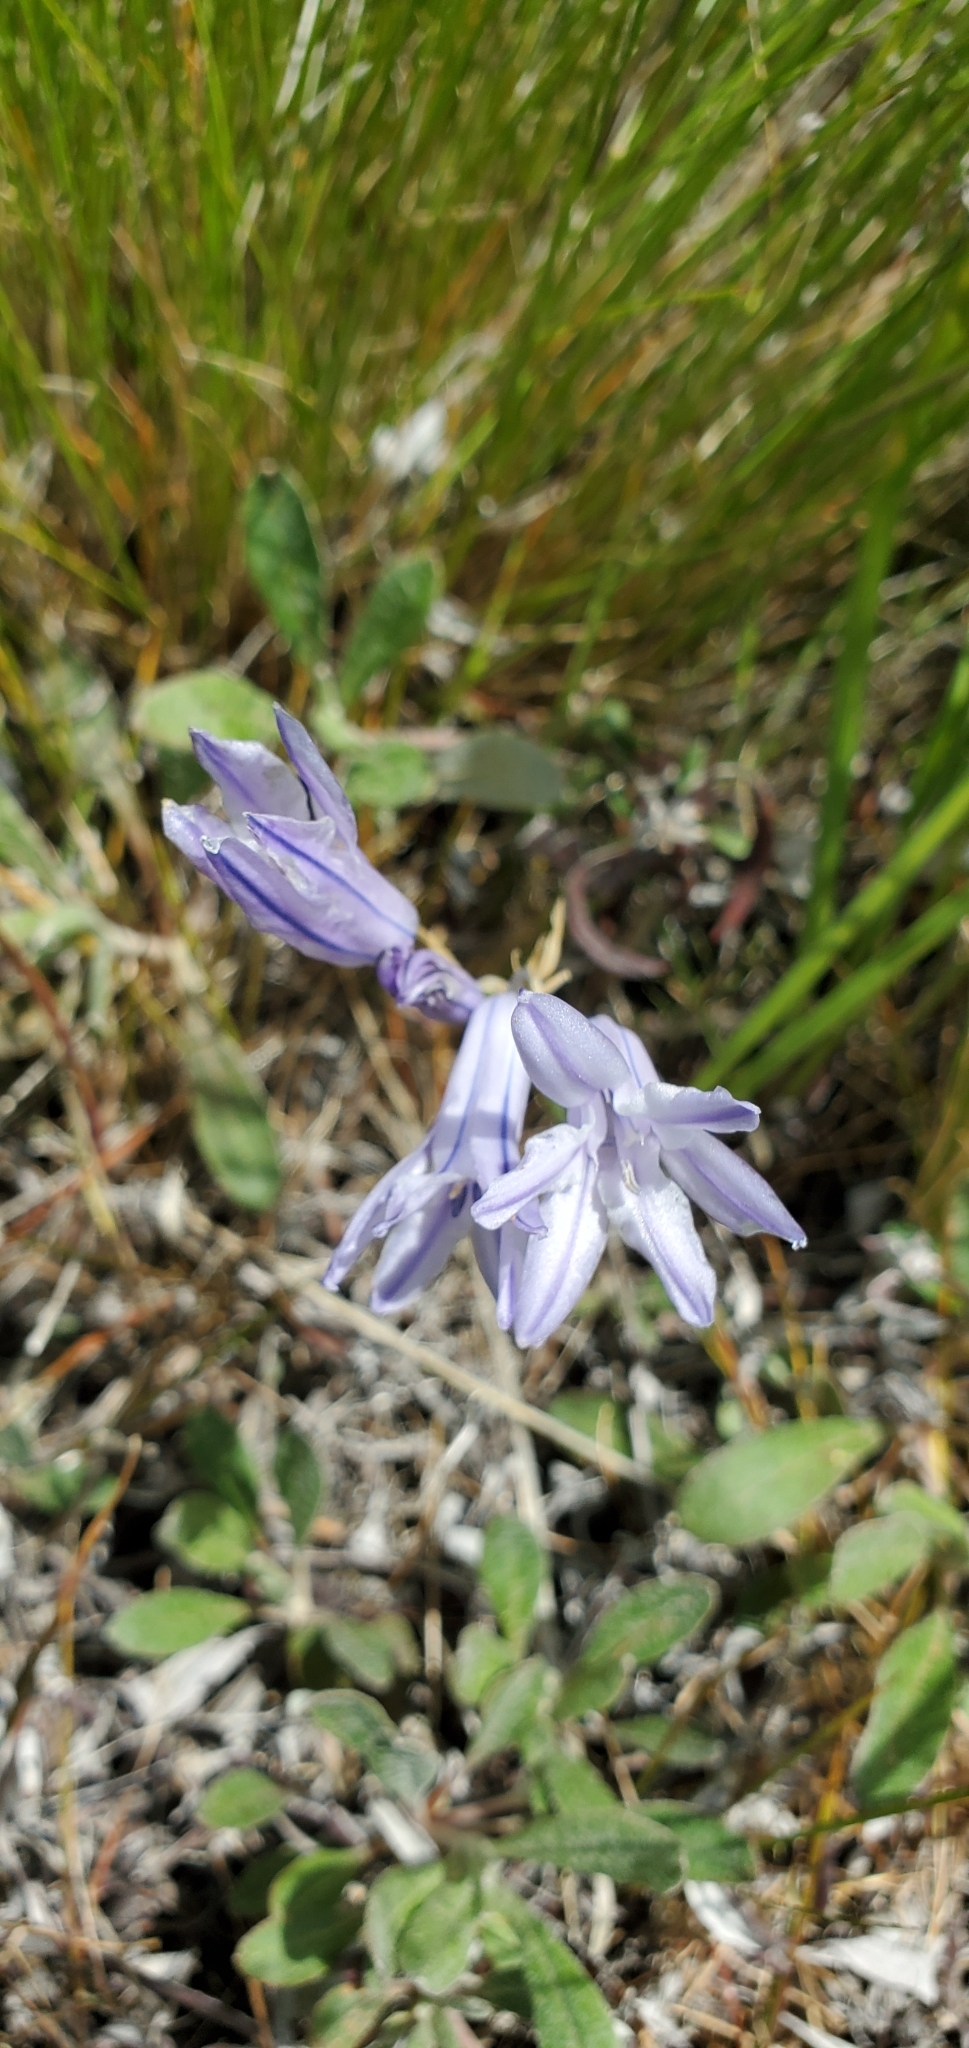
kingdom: Plantae
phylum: Tracheophyta
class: Liliopsida
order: Asparagales
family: Asparagaceae
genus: Triteleia
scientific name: Triteleia grandiflora
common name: Wild hyacinth
